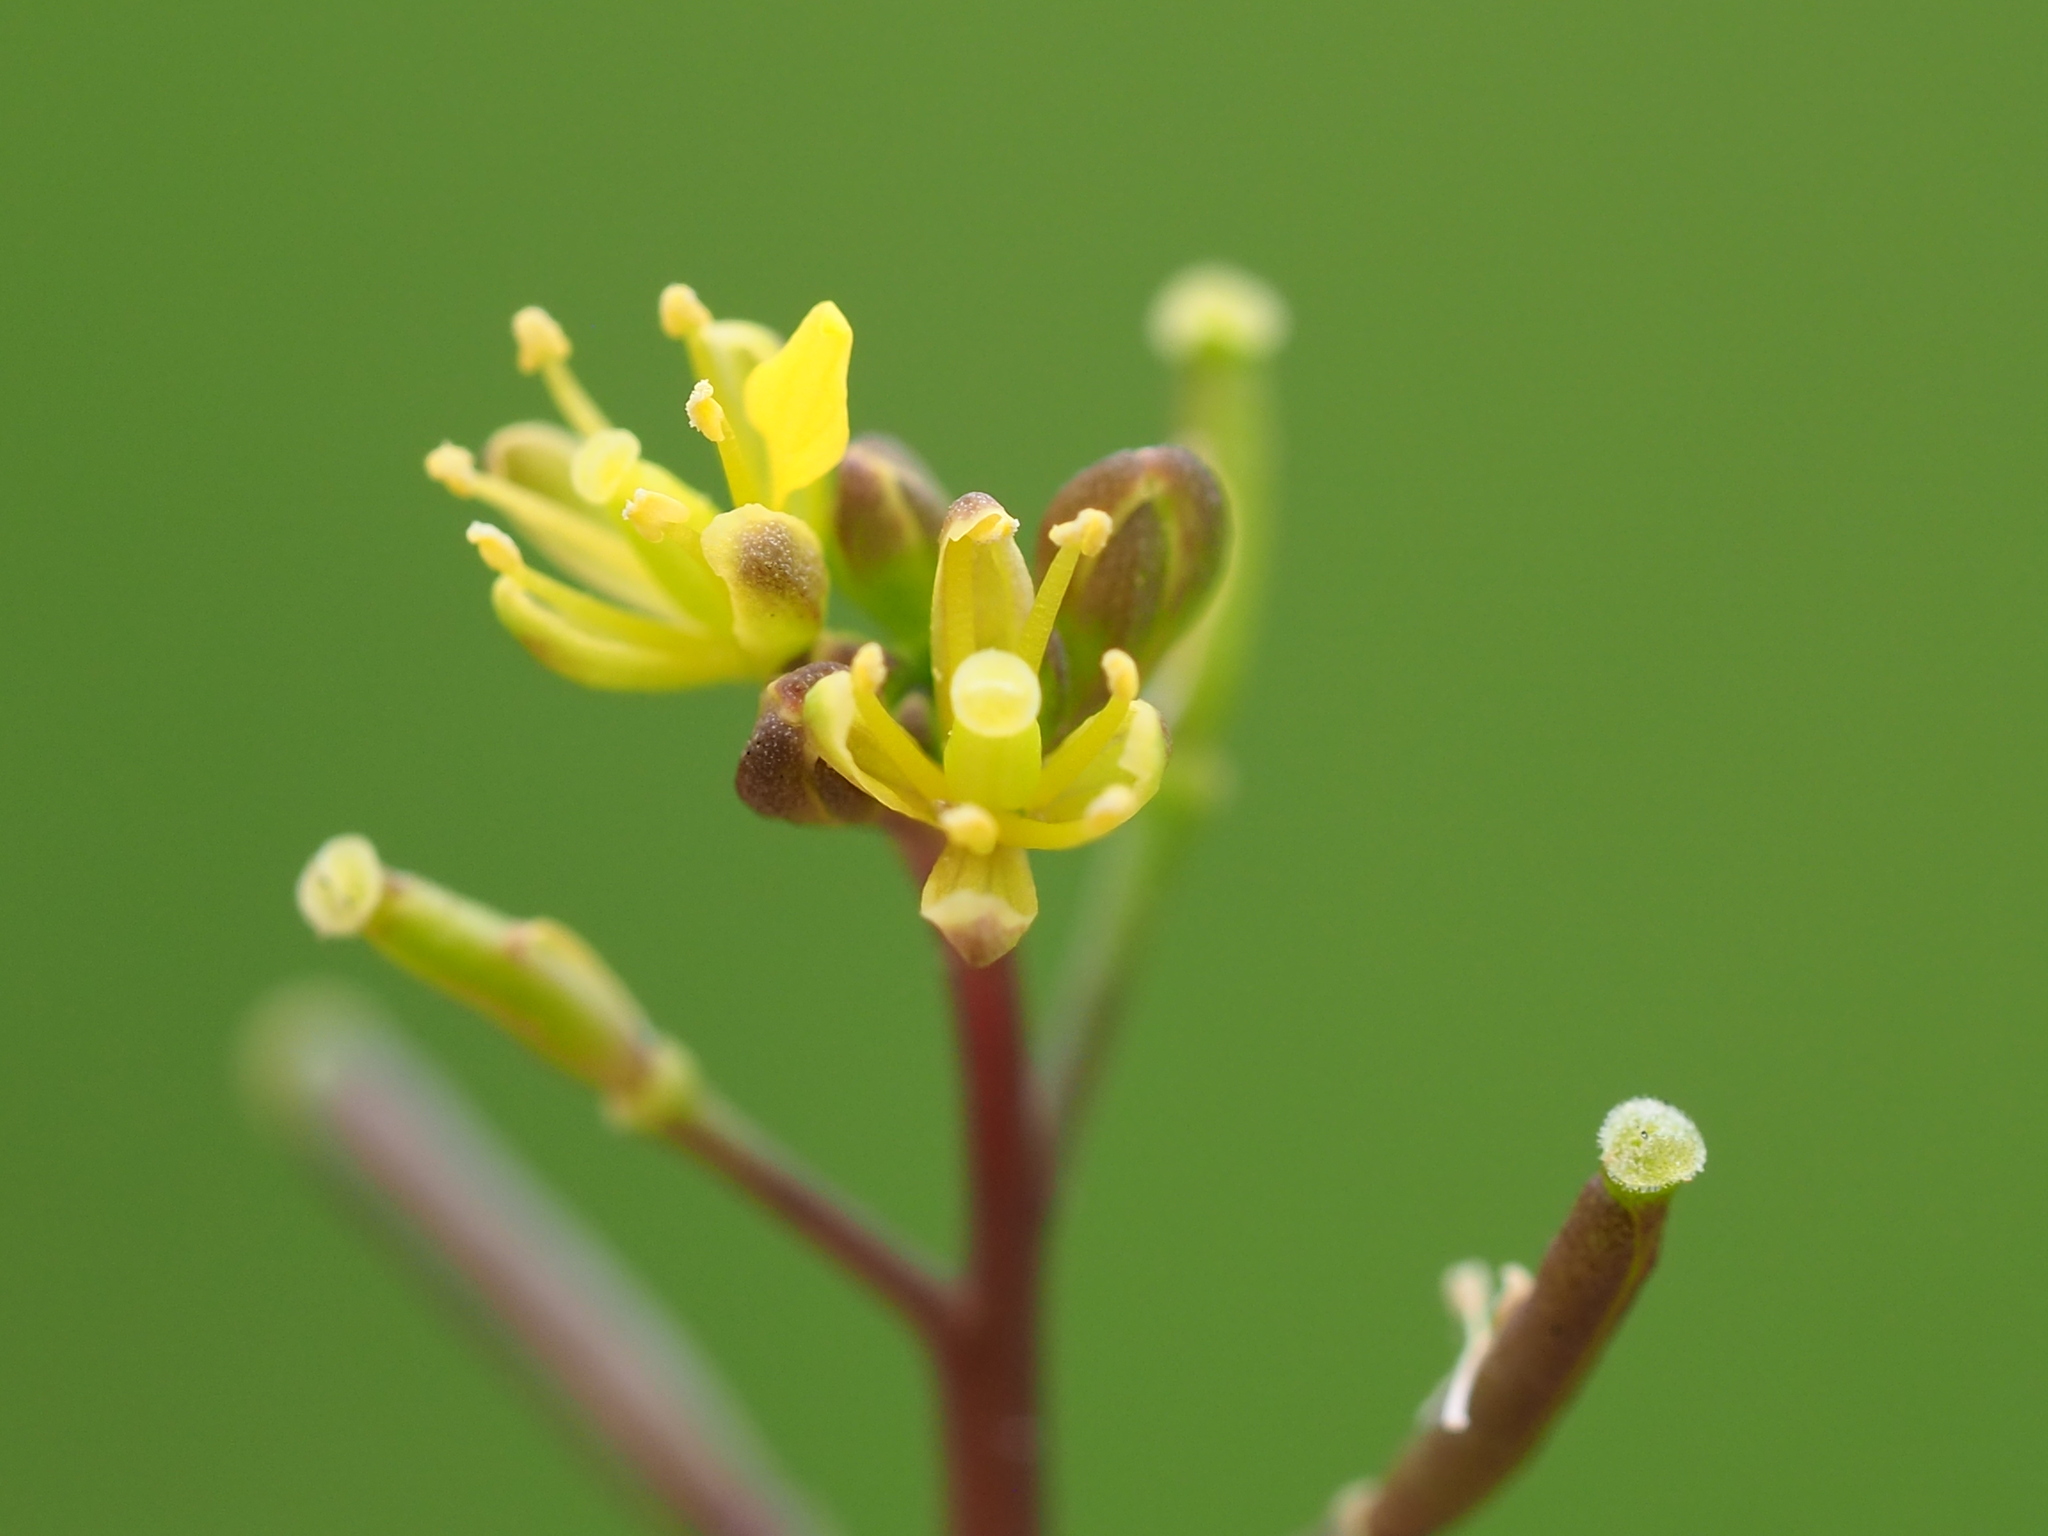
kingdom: Plantae
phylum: Tracheophyta
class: Magnoliopsida
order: Brassicales
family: Brassicaceae
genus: Rorippa
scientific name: Rorippa indica
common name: Variableleaf yellowcress
